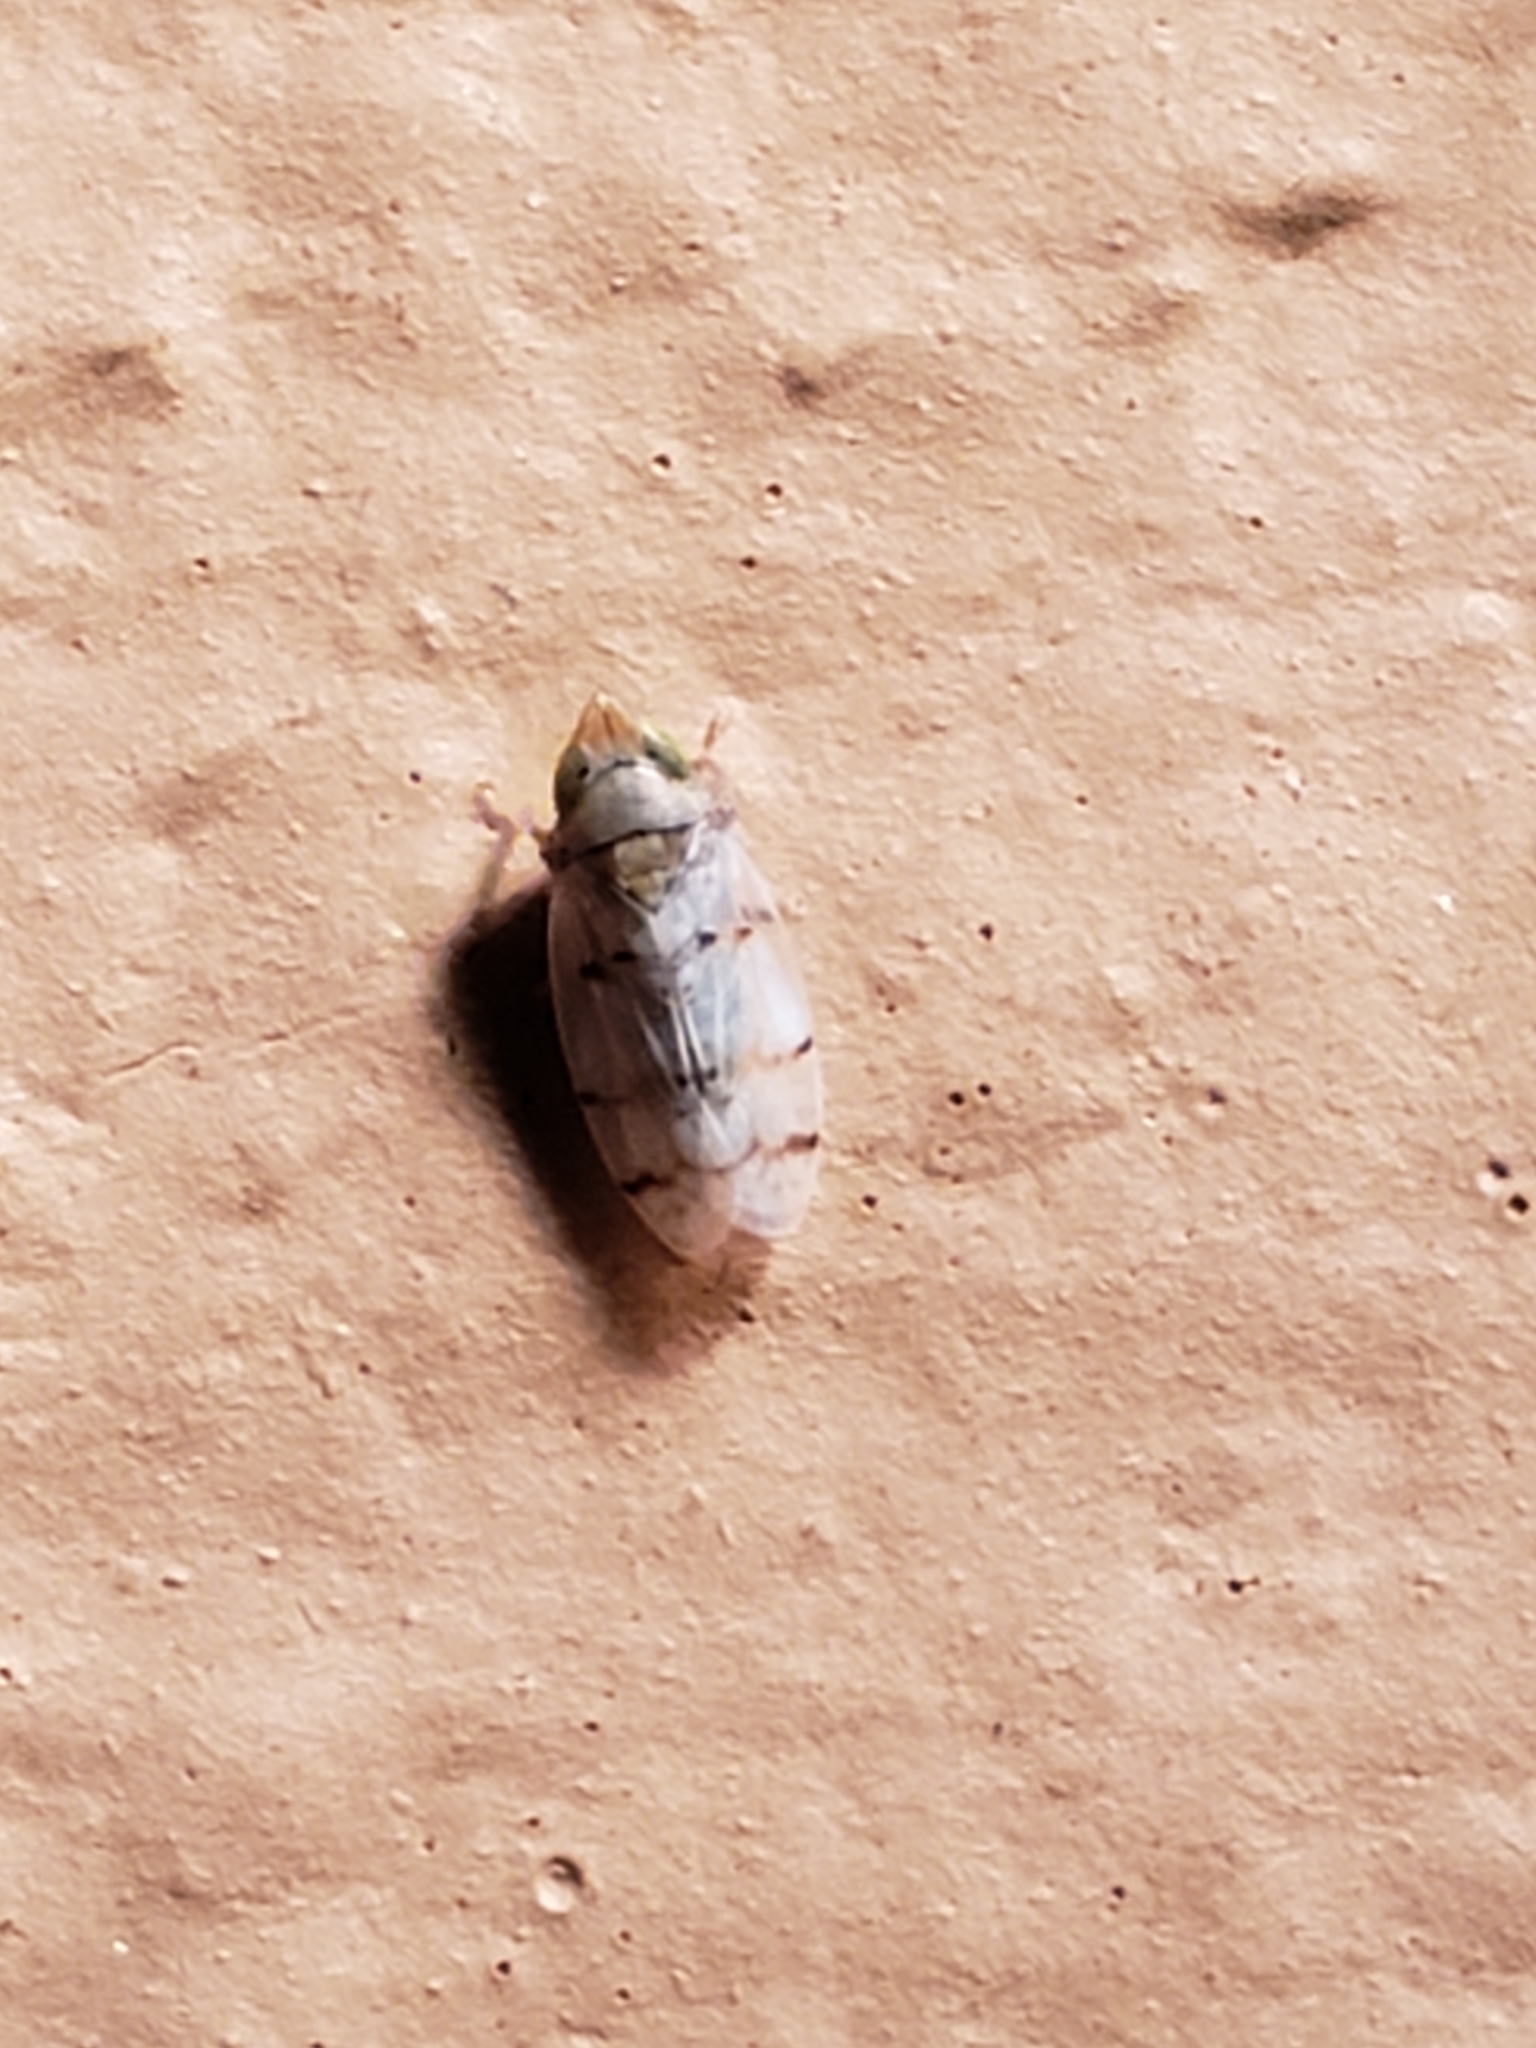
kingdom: Animalia
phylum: Arthropoda
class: Insecta
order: Hemiptera
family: Cicadellidae
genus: Japananus
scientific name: Japananus hyalinus
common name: The japanese maple leafhopper
